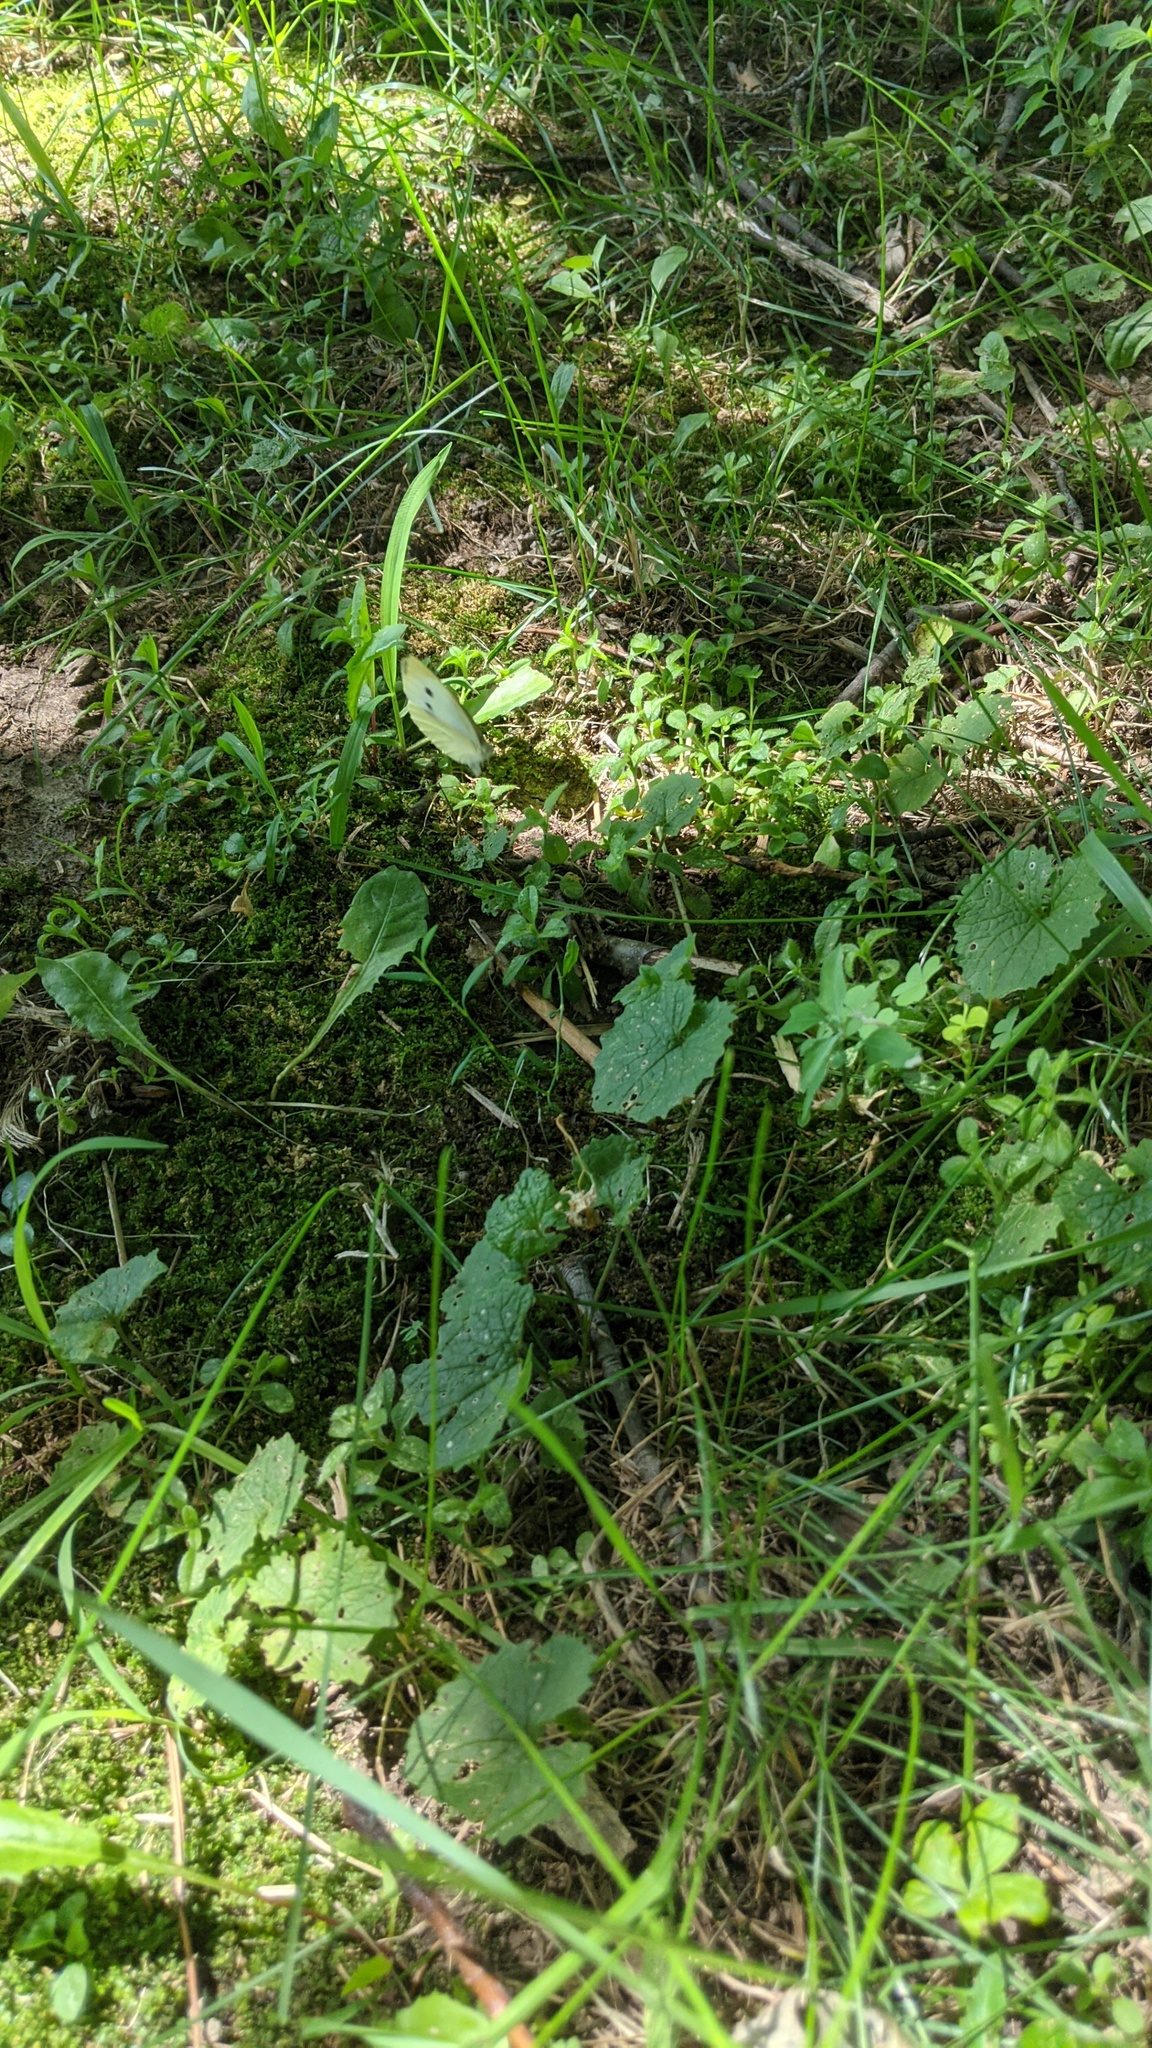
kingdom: Plantae
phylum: Tracheophyta
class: Magnoliopsida
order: Brassicales
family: Brassicaceae
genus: Alliaria
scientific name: Alliaria petiolata
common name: Garlic mustard
